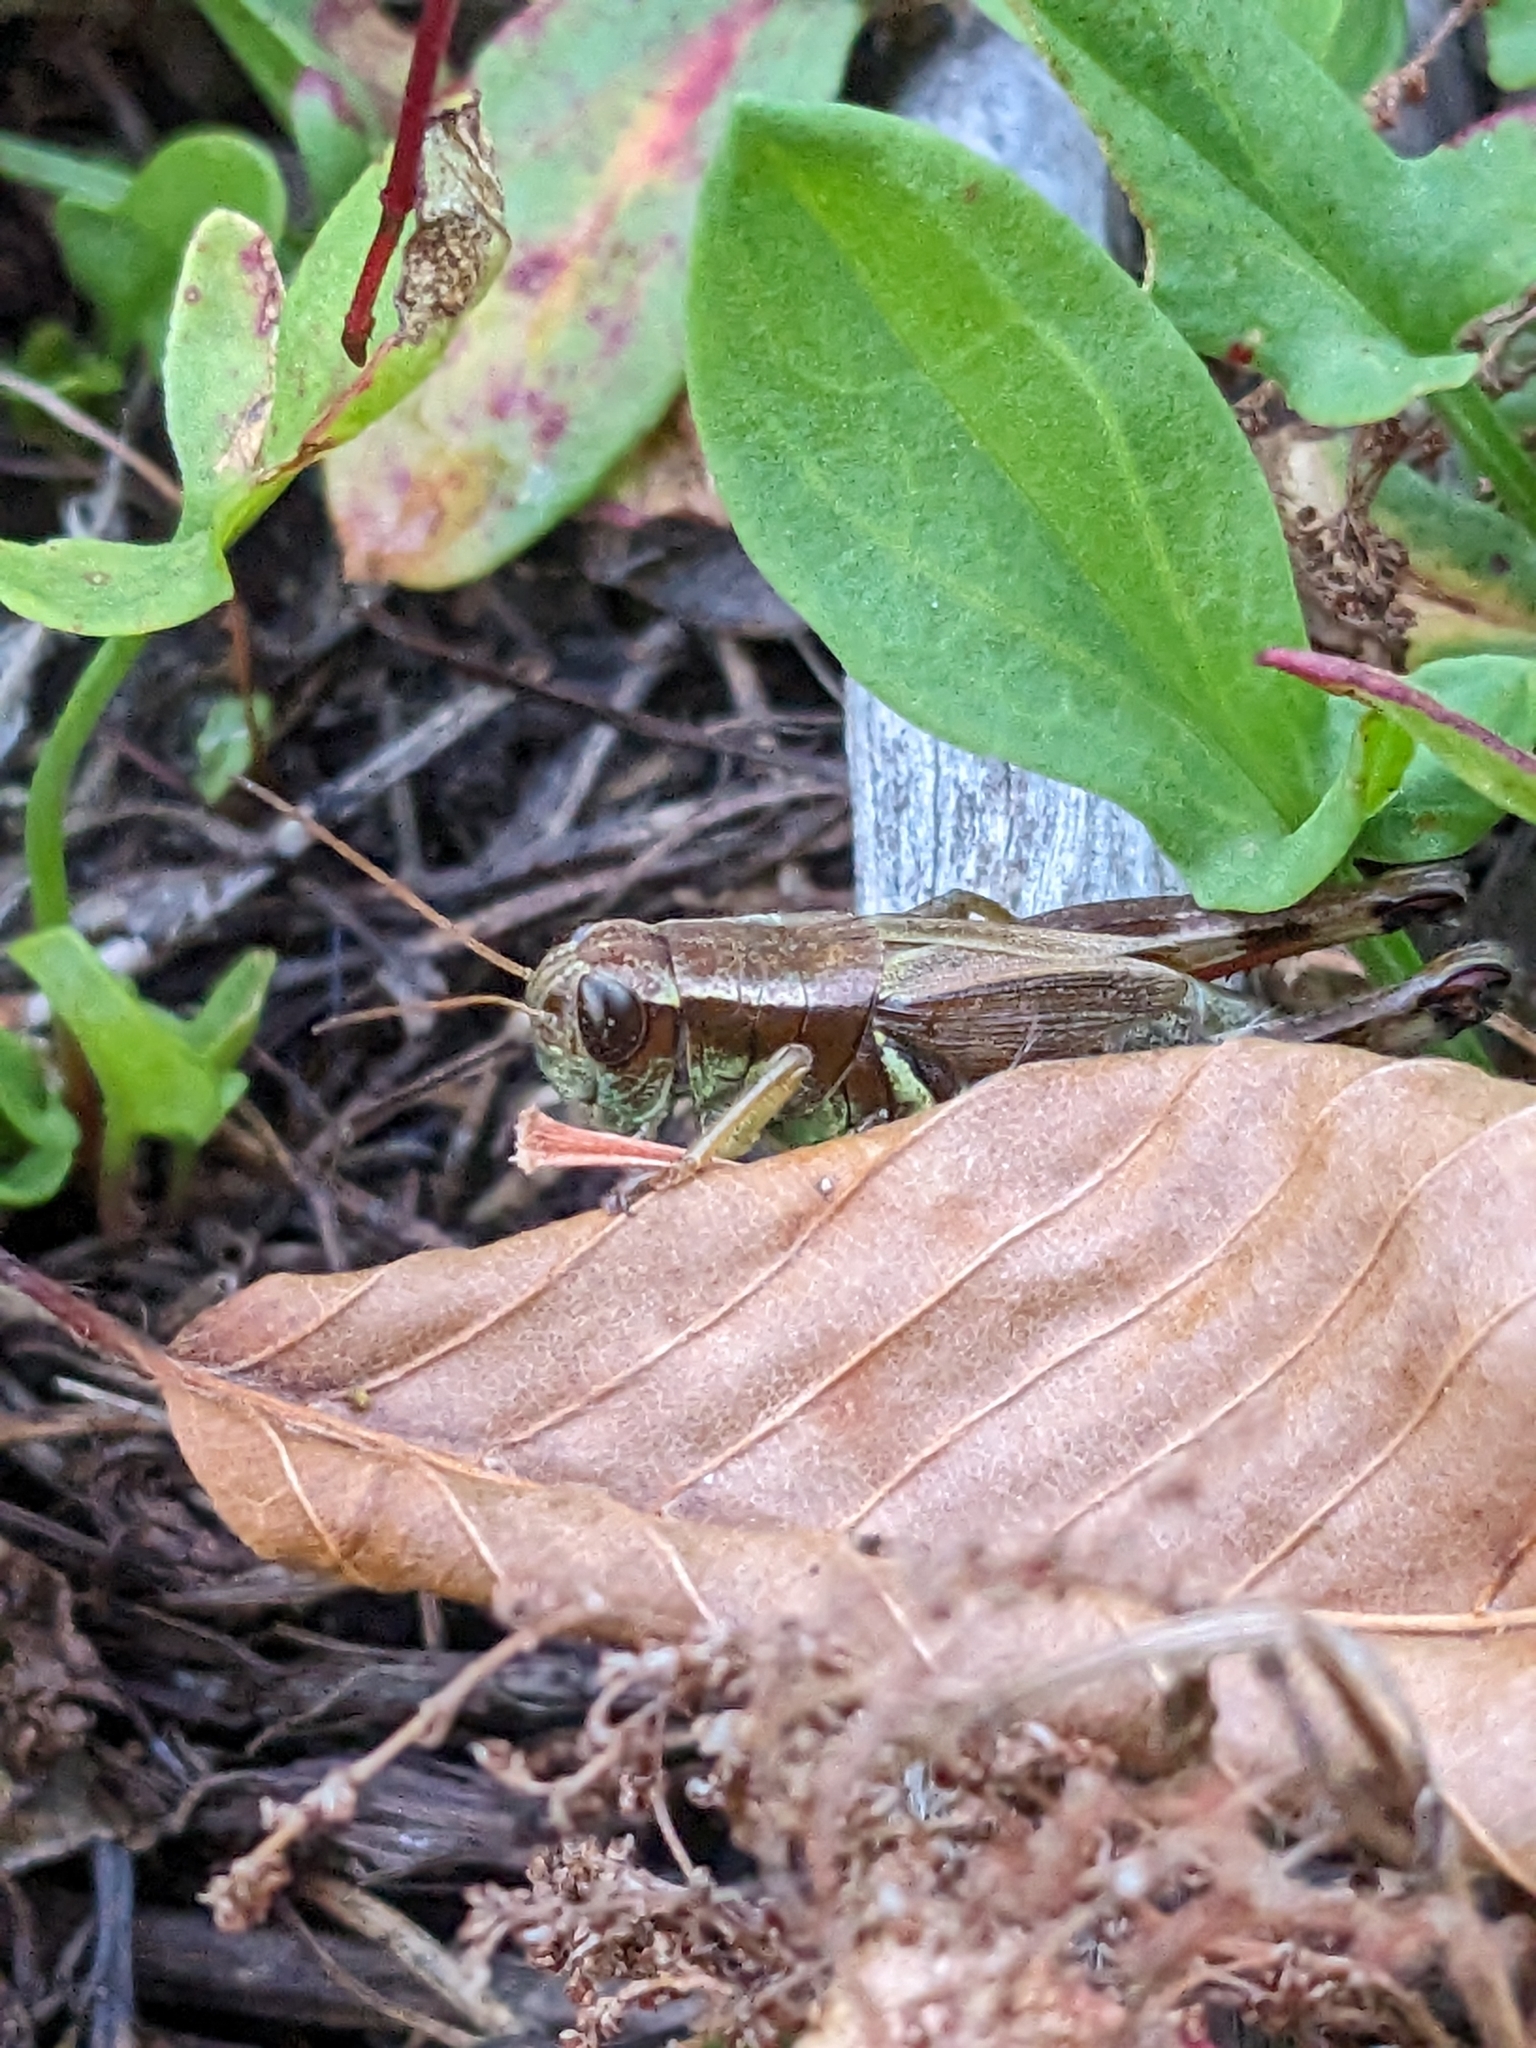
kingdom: Animalia
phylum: Arthropoda
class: Insecta
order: Orthoptera
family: Acrididae
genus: Melanoplus
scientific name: Melanoplus walshii
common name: Walsh's locust
